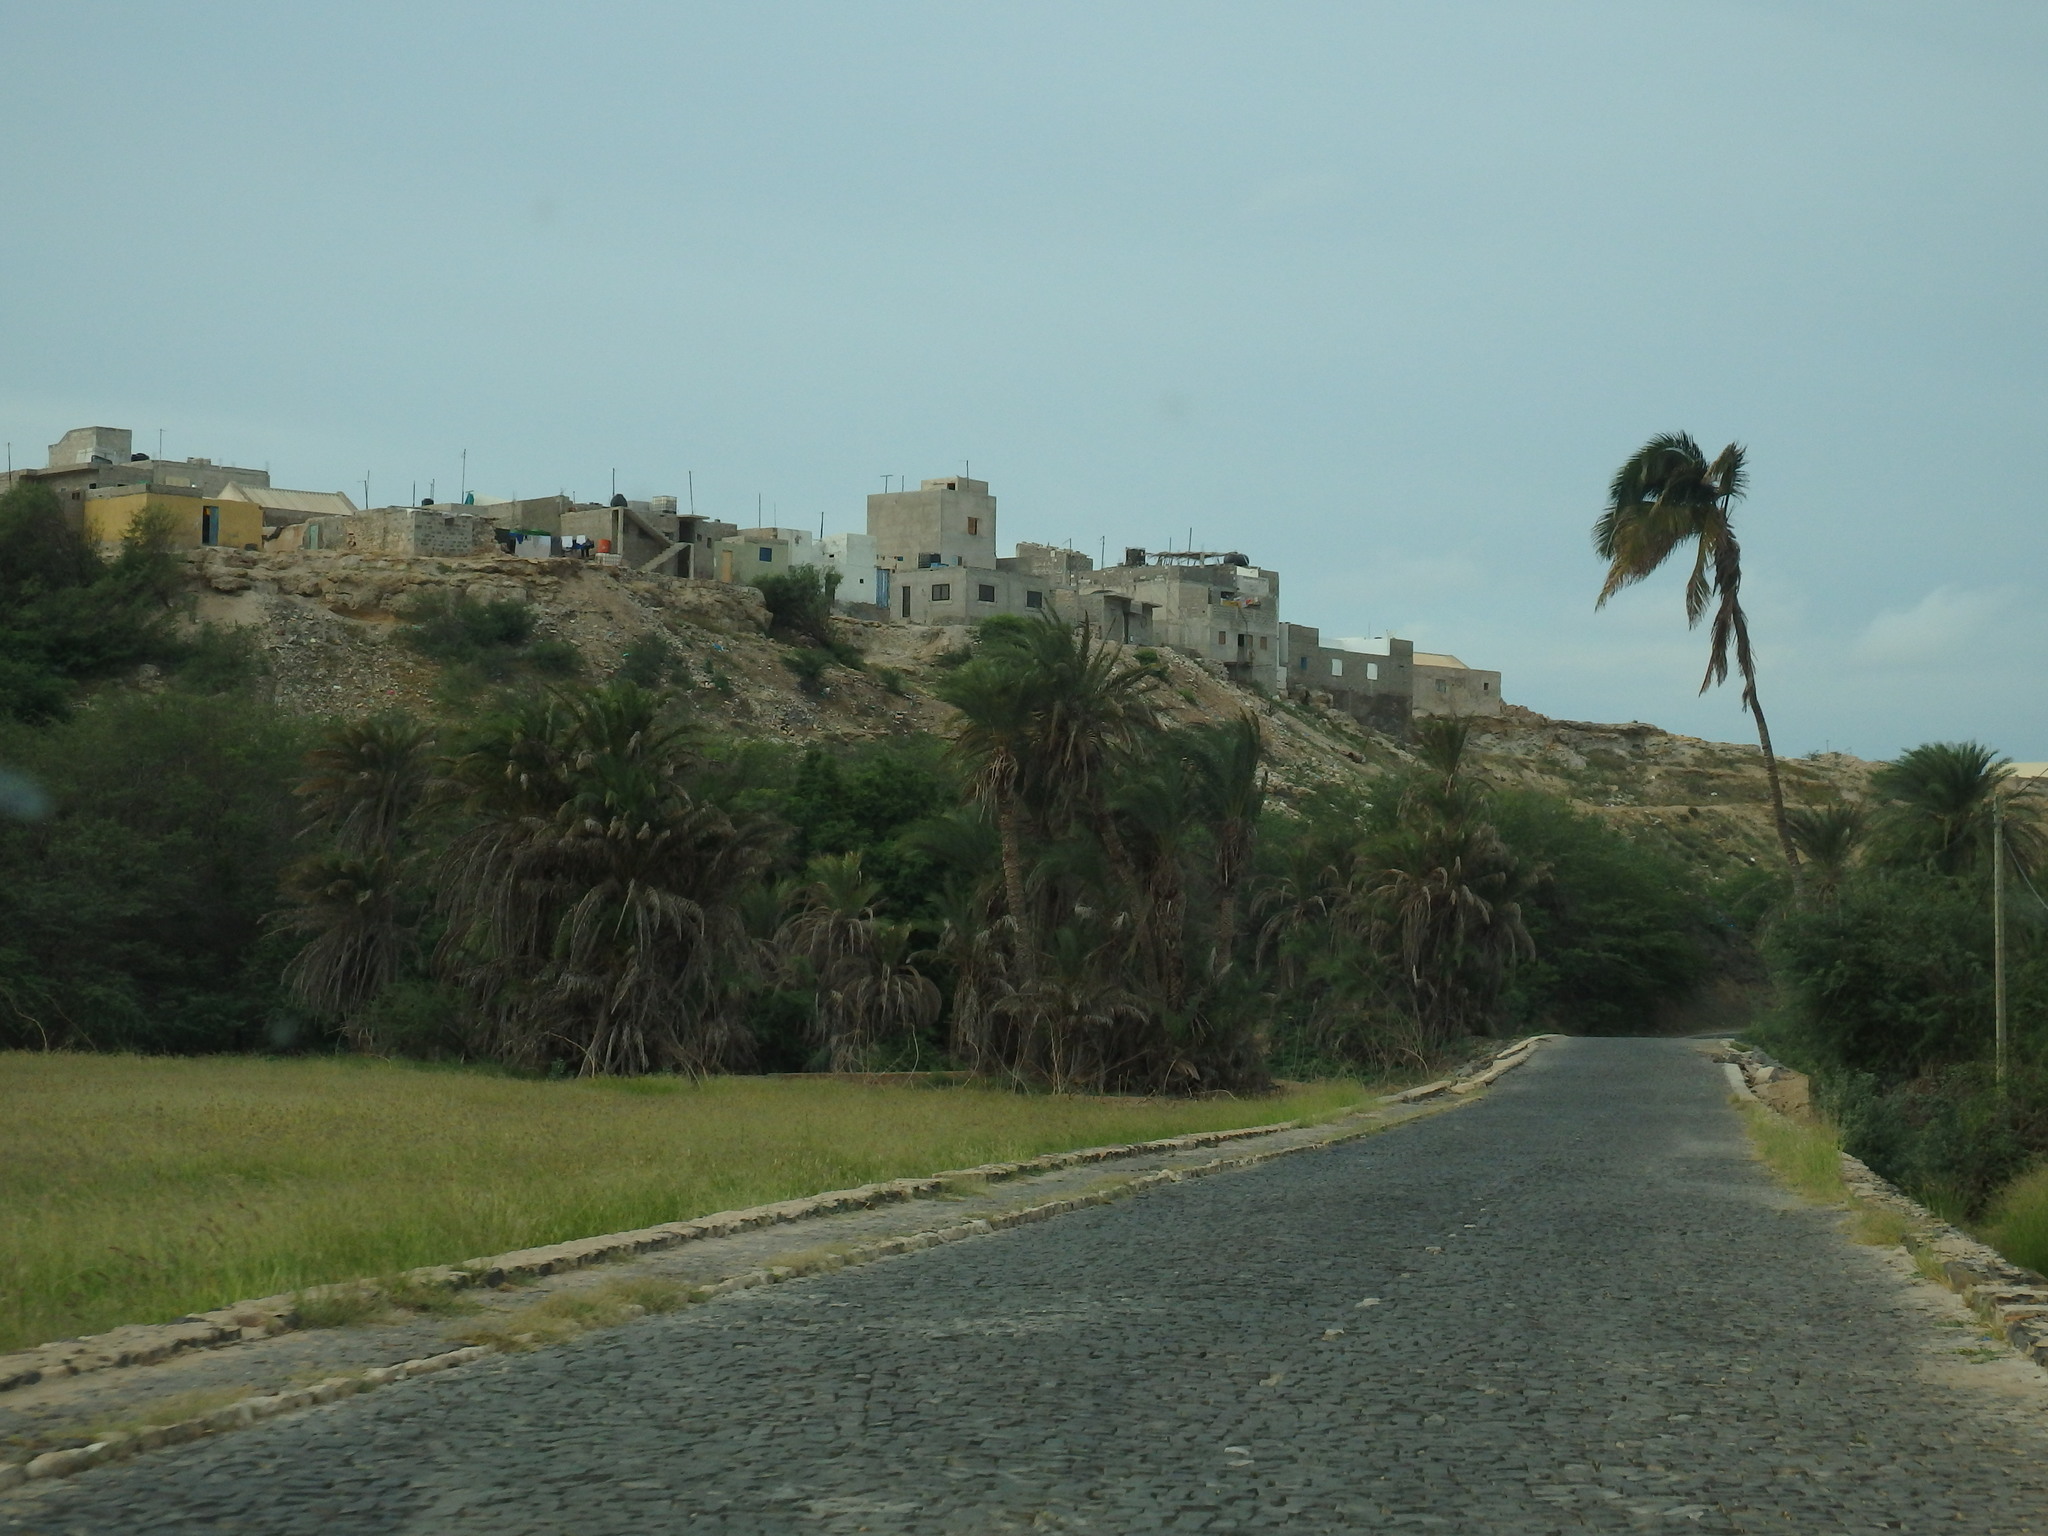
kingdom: Plantae
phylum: Tracheophyta
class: Liliopsida
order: Arecales
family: Arecaceae
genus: Phoenix
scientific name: Phoenix atlantica
